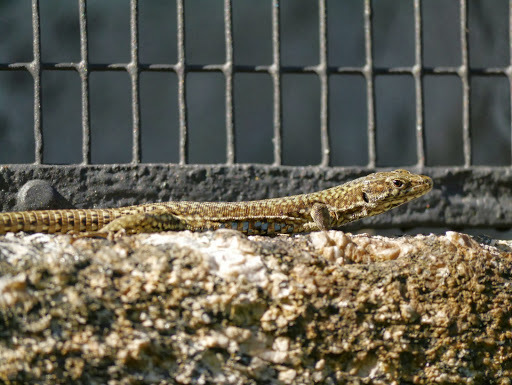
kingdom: Animalia
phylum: Chordata
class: Squamata
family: Lacertidae
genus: Podarcis
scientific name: Podarcis muralis
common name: Common wall lizard
